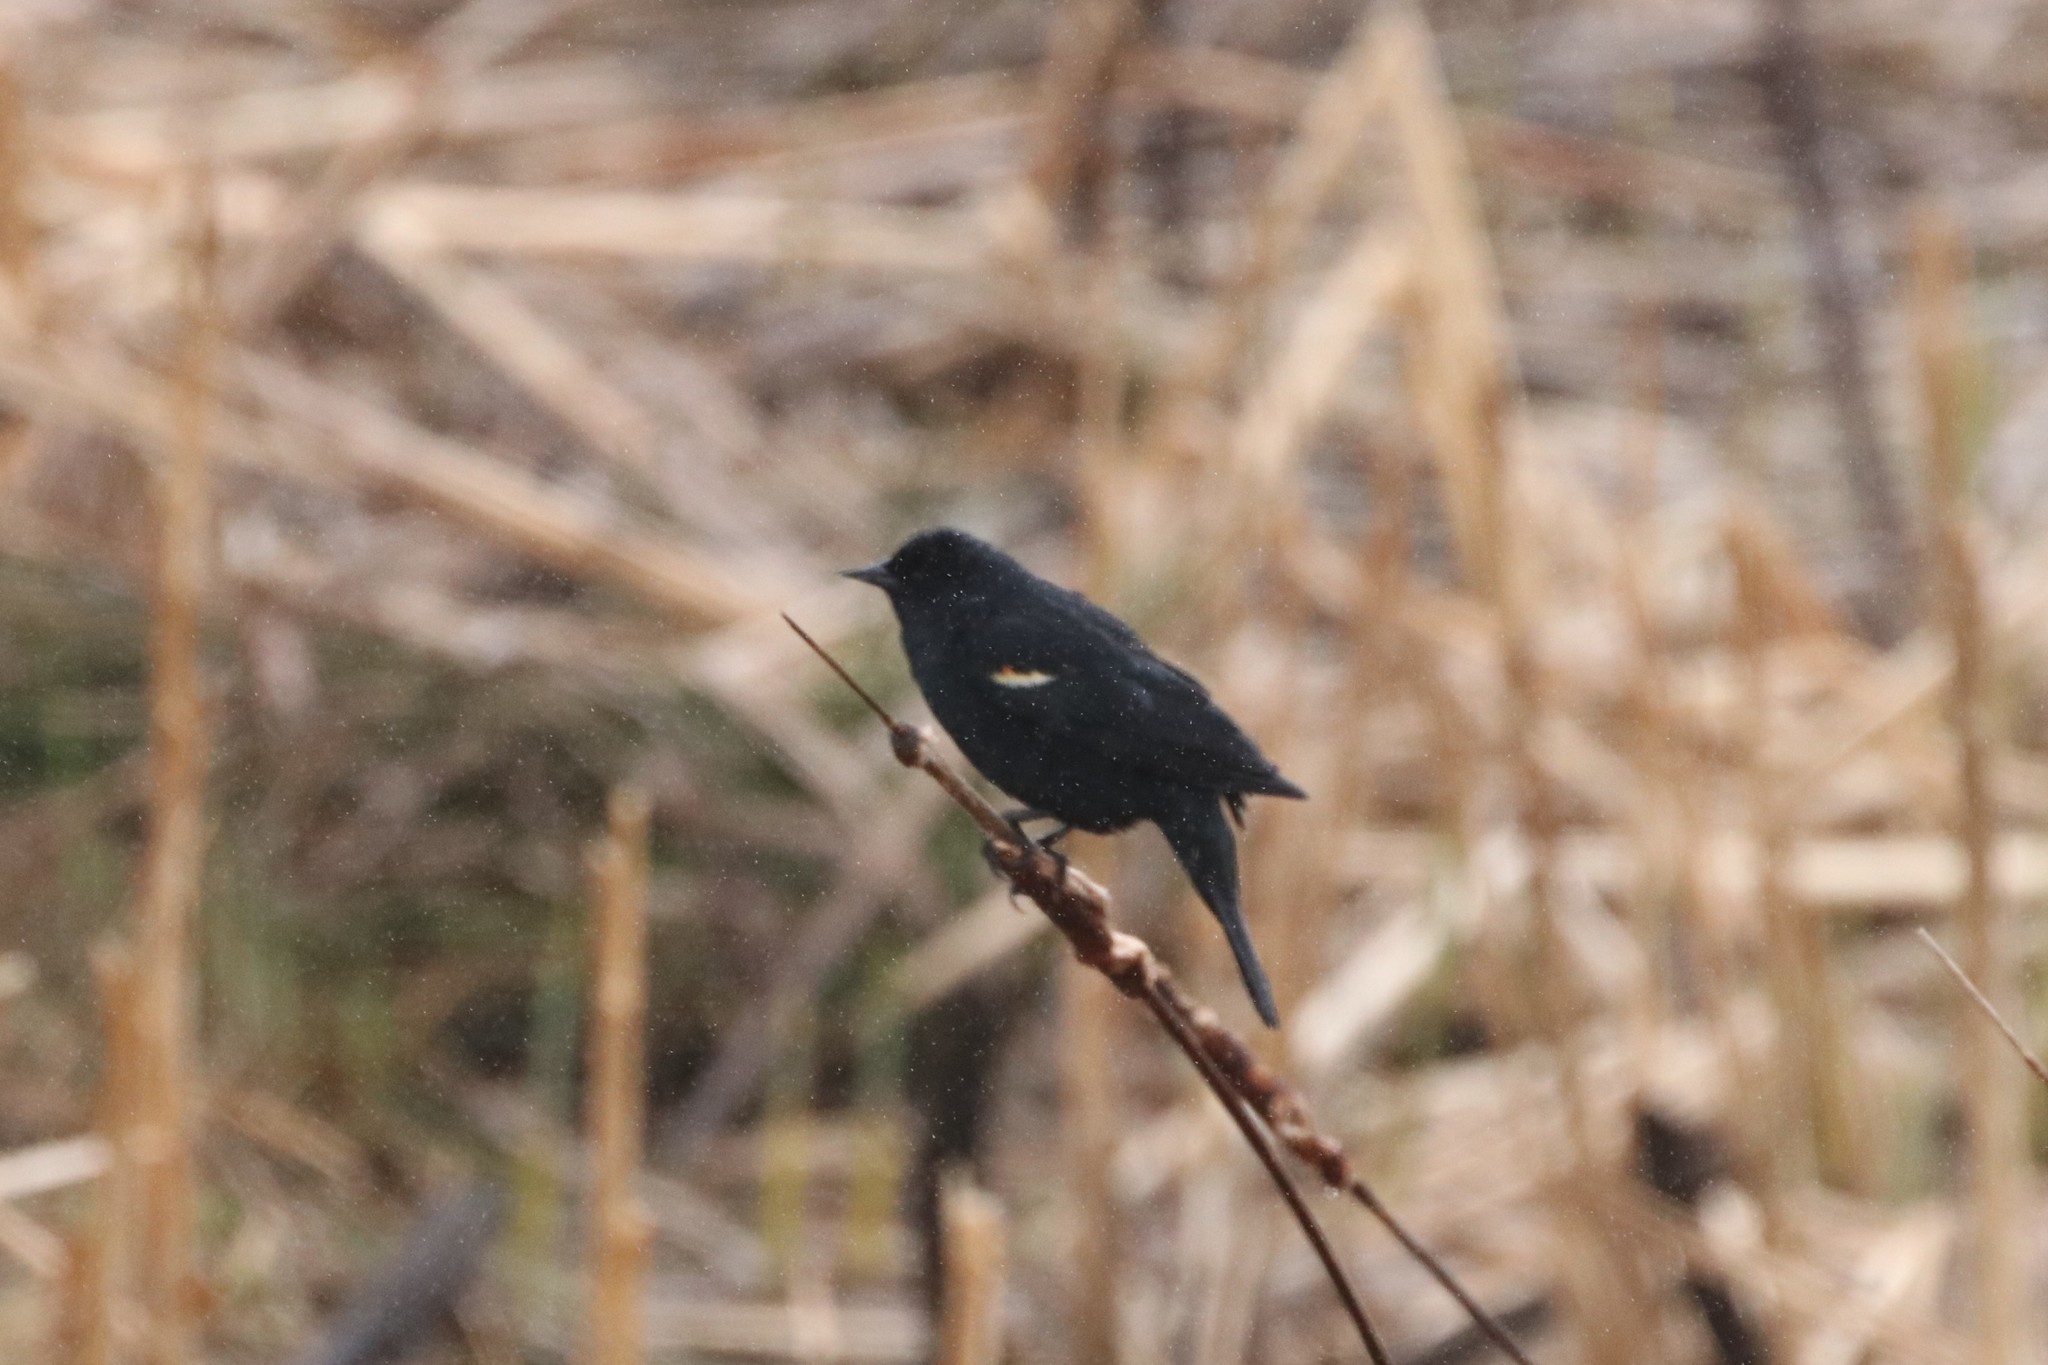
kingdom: Animalia
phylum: Chordata
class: Aves
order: Passeriformes
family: Icteridae
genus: Agelaius
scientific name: Agelaius phoeniceus
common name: Red-winged blackbird
